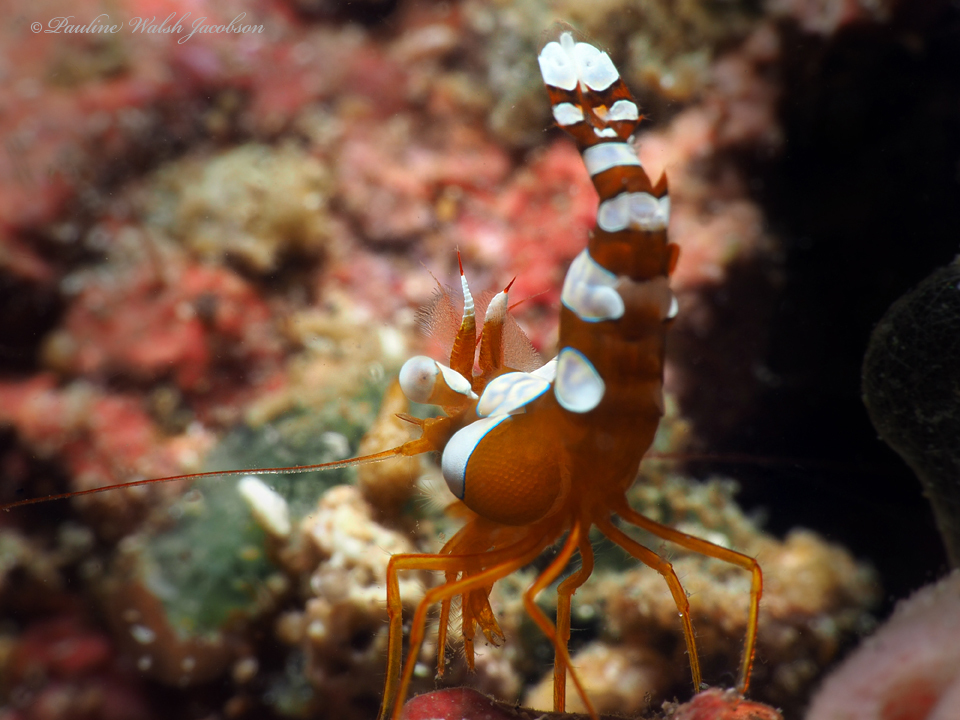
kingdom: Animalia
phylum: Arthropoda
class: Malacostraca
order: Decapoda
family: Thoridae
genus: Thor
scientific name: Thor amboinensis
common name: Squat anemone shrimp
